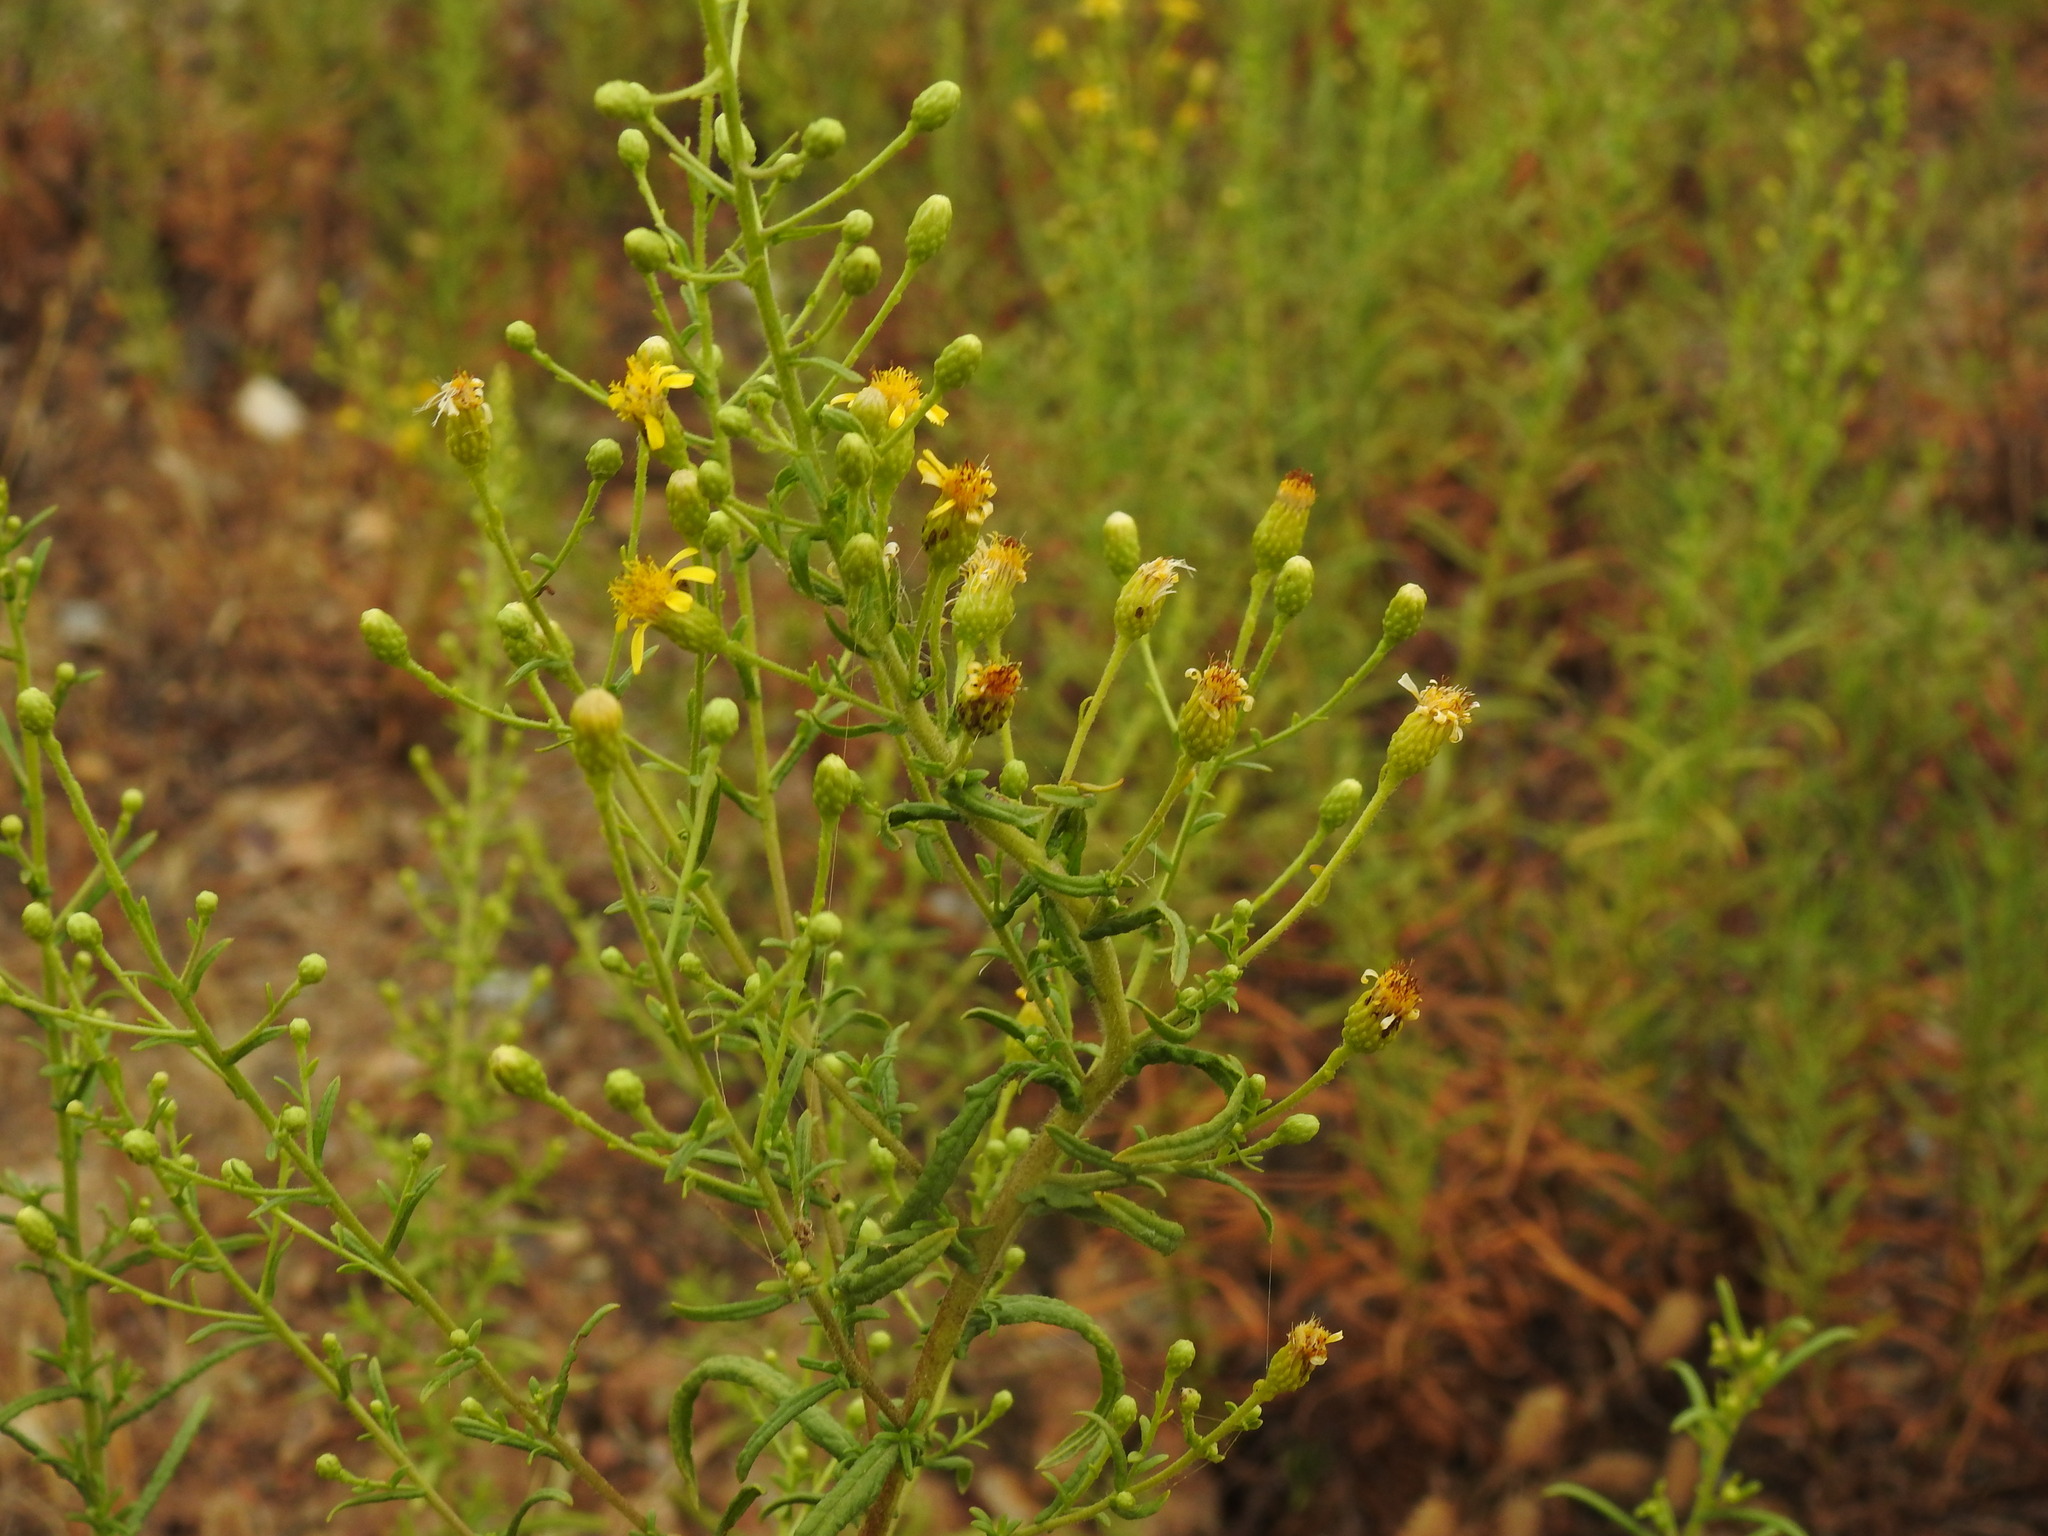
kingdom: Plantae
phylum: Tracheophyta
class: Magnoliopsida
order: Asterales
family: Asteraceae
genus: Dittrichia
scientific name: Dittrichia viscosa
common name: Woody fleabane
